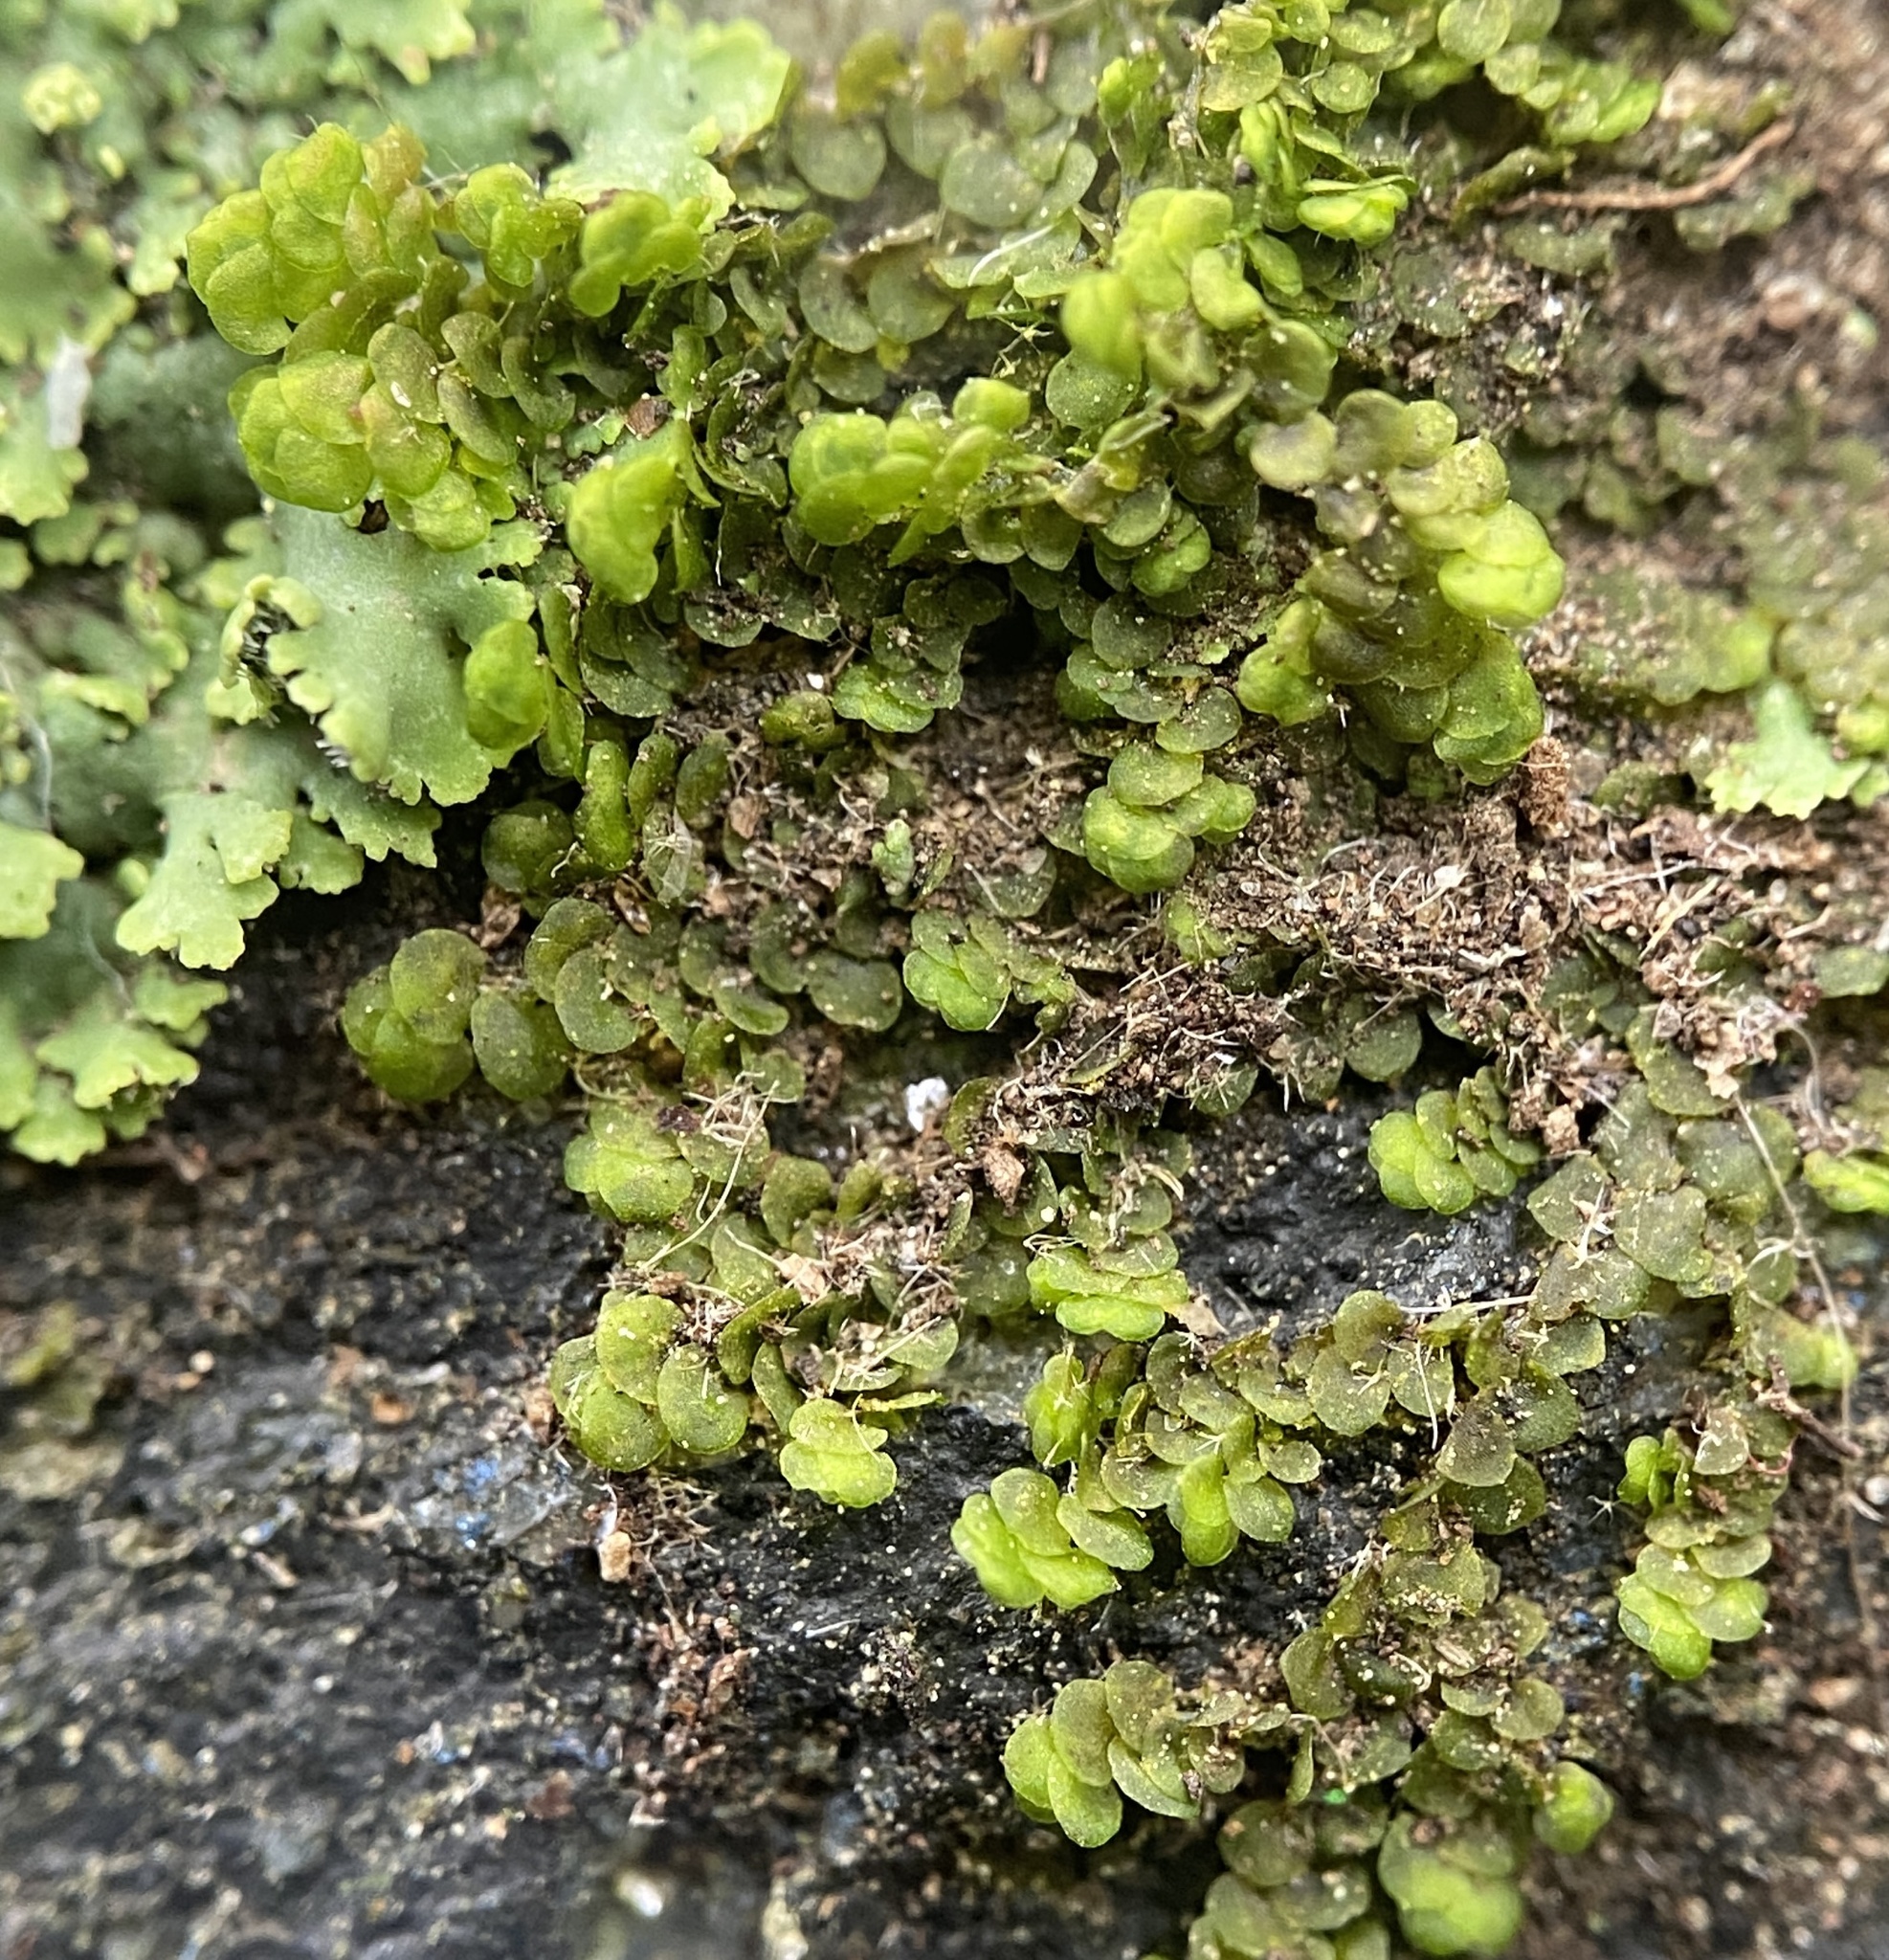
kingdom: Plantae
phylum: Marchantiophyta
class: Jungermanniopsida
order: Porellales
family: Frullaniaceae
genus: Frullania
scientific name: Frullania inflata
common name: Inflated scalewort
